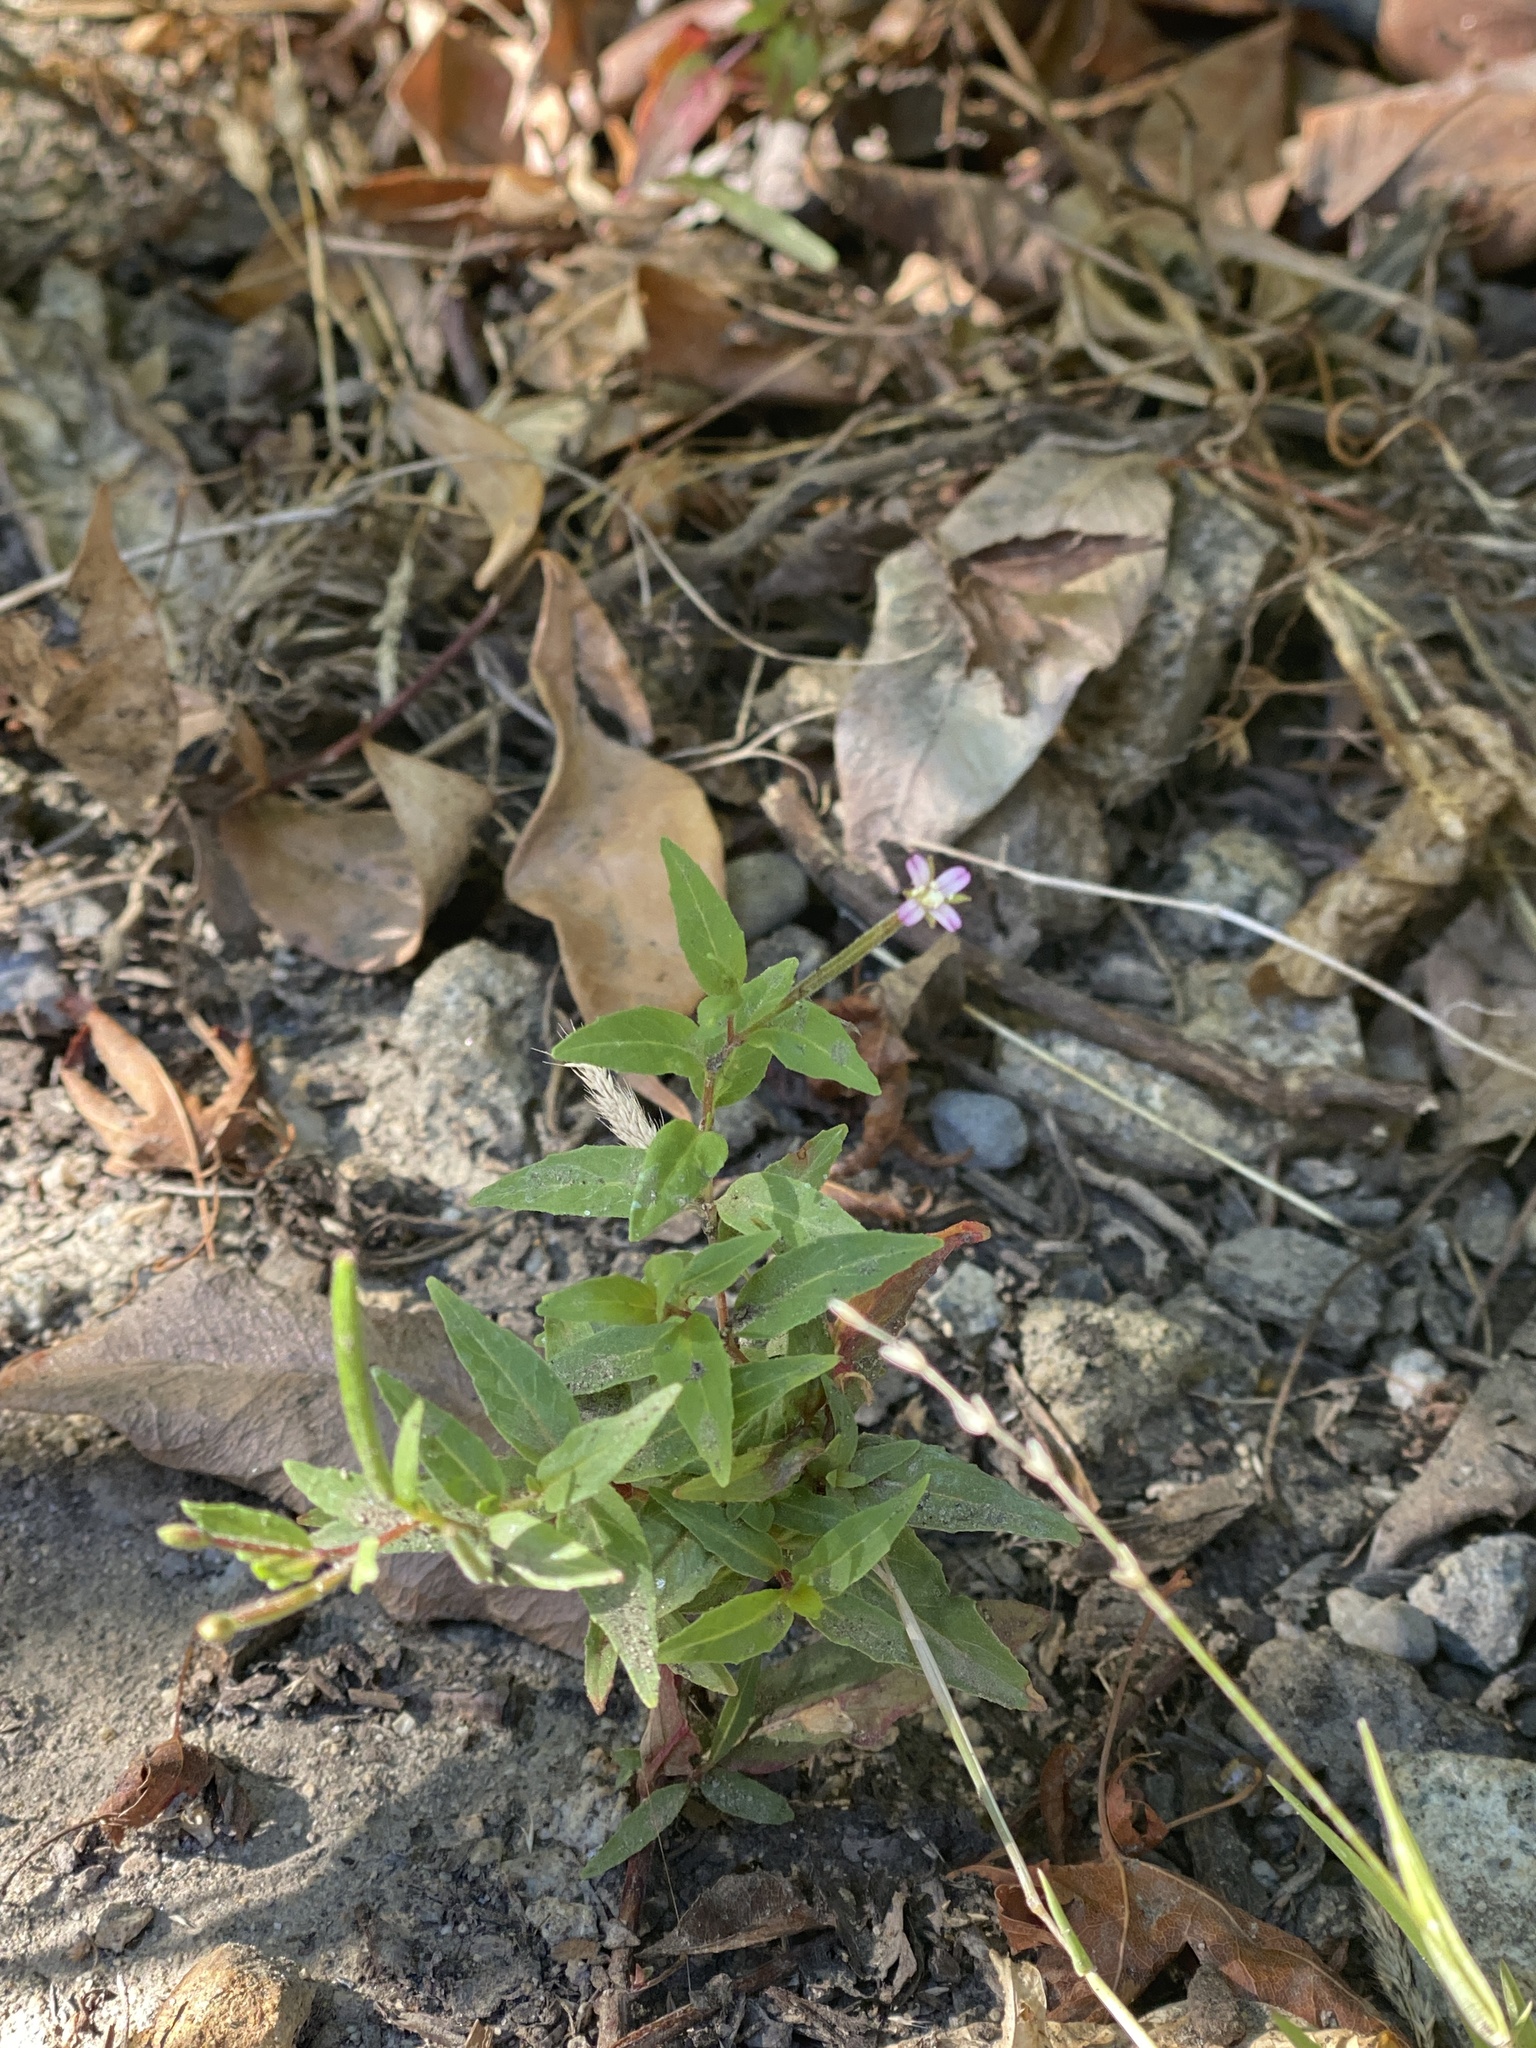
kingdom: Plantae
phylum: Tracheophyta
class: Magnoliopsida
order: Myrtales
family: Onagraceae
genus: Epilobium
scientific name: Epilobium ciliatum
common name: American willowherb
